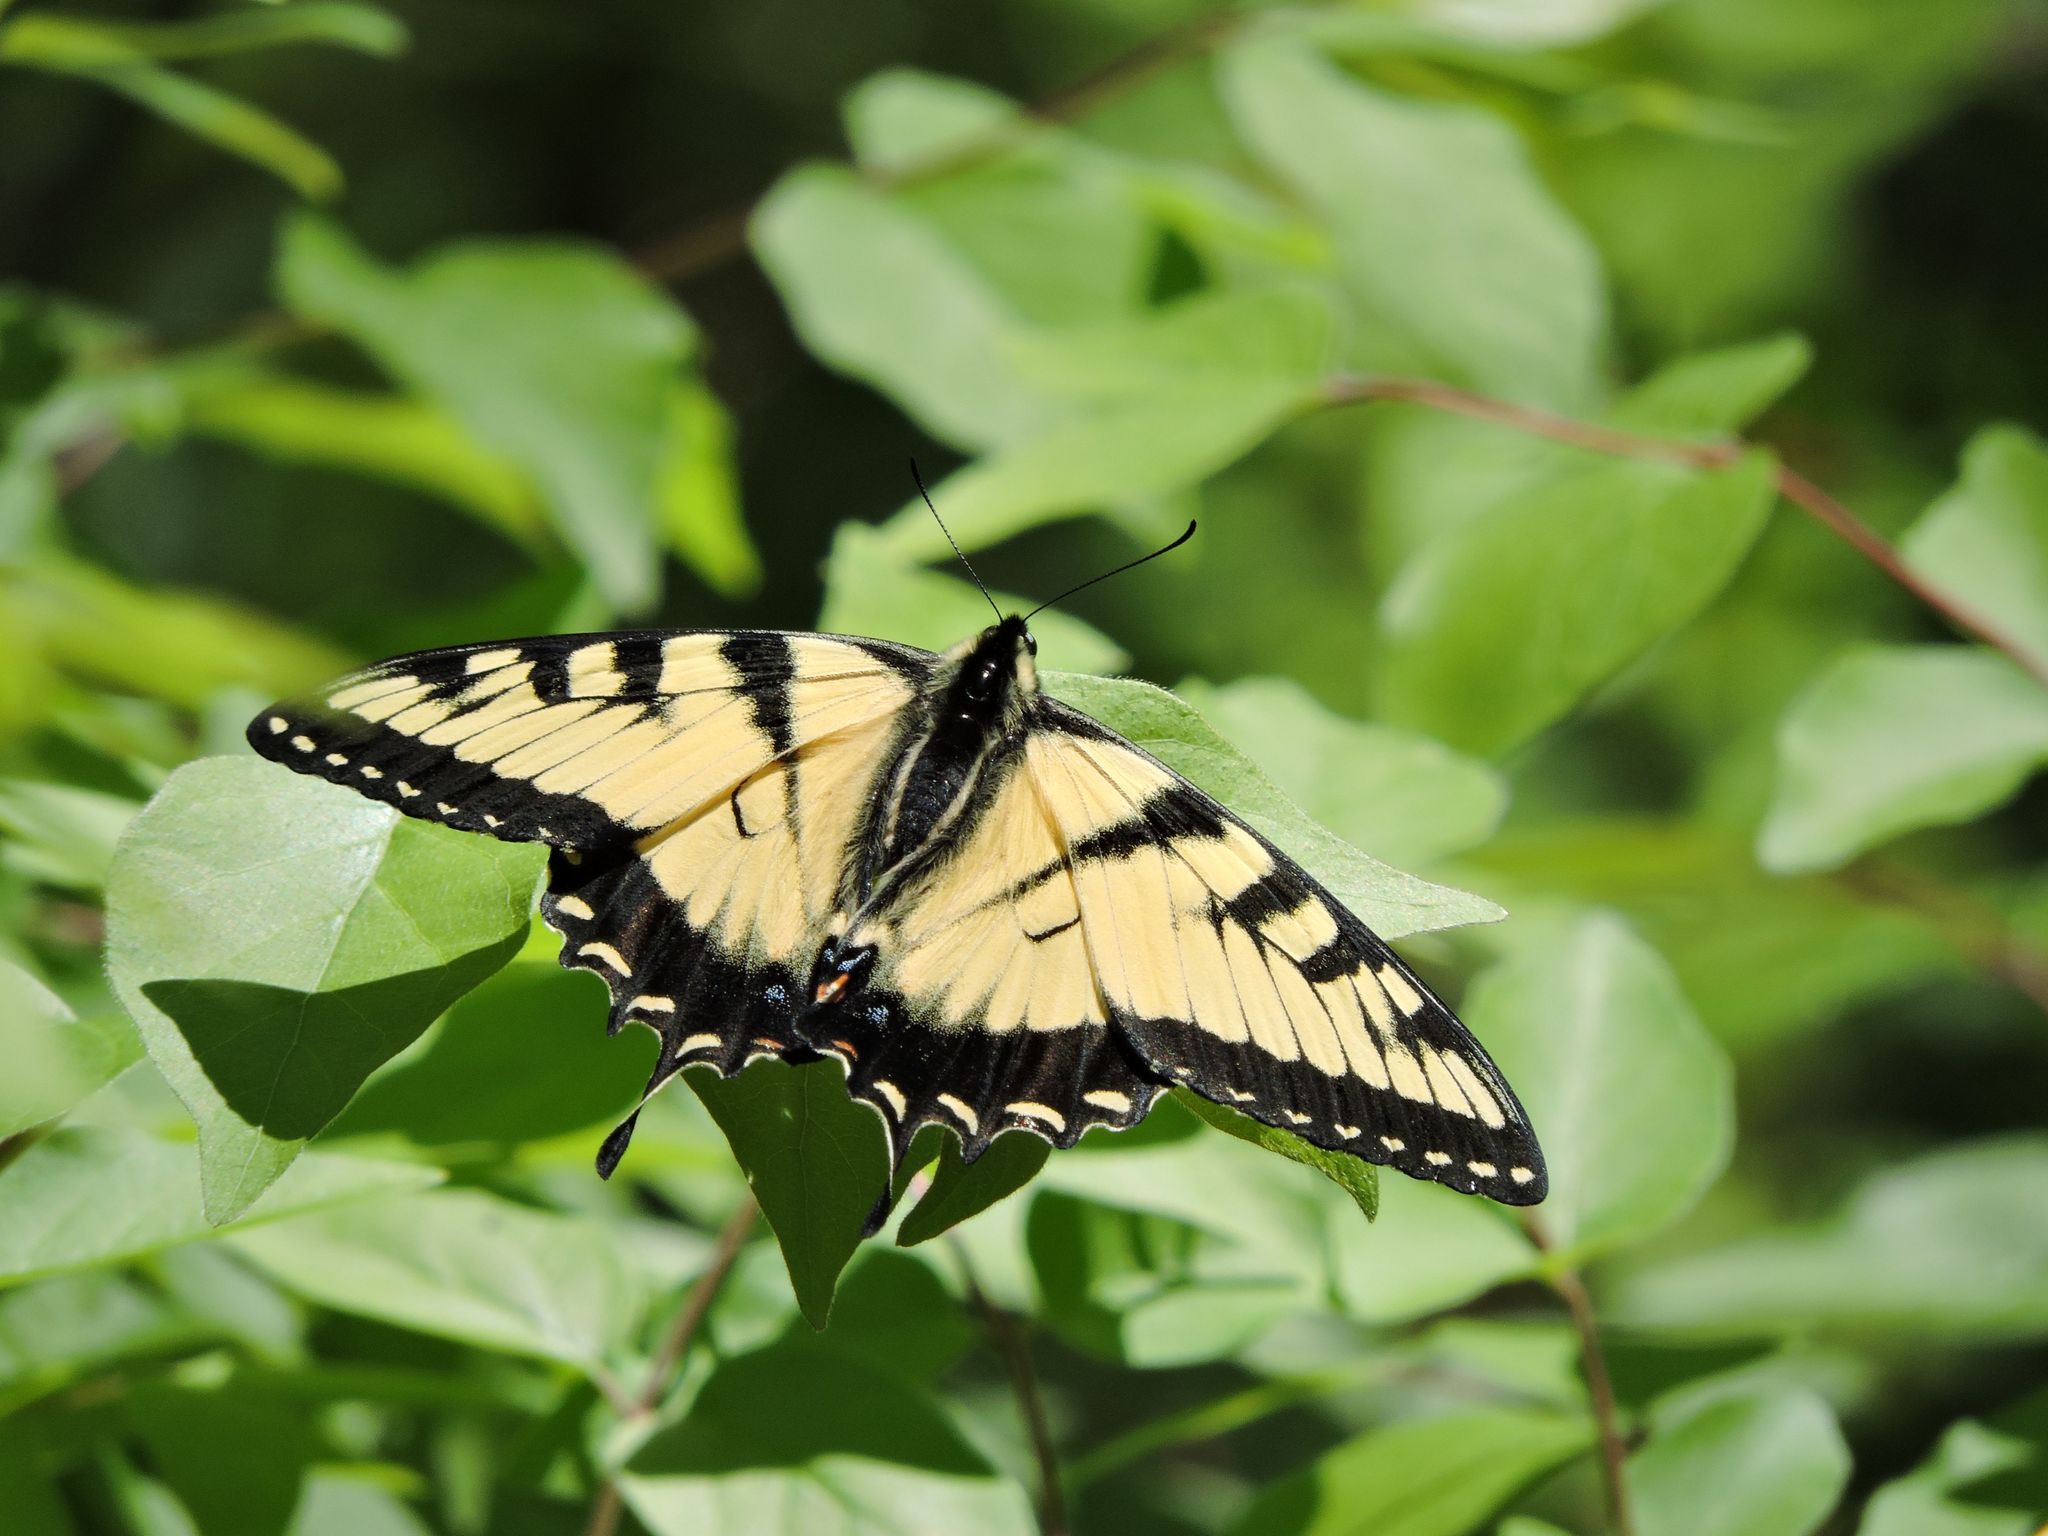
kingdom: Animalia
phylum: Arthropoda
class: Insecta
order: Lepidoptera
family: Papilionidae
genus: Papilio
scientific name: Papilio glaucus
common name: Tiger swallowtail
